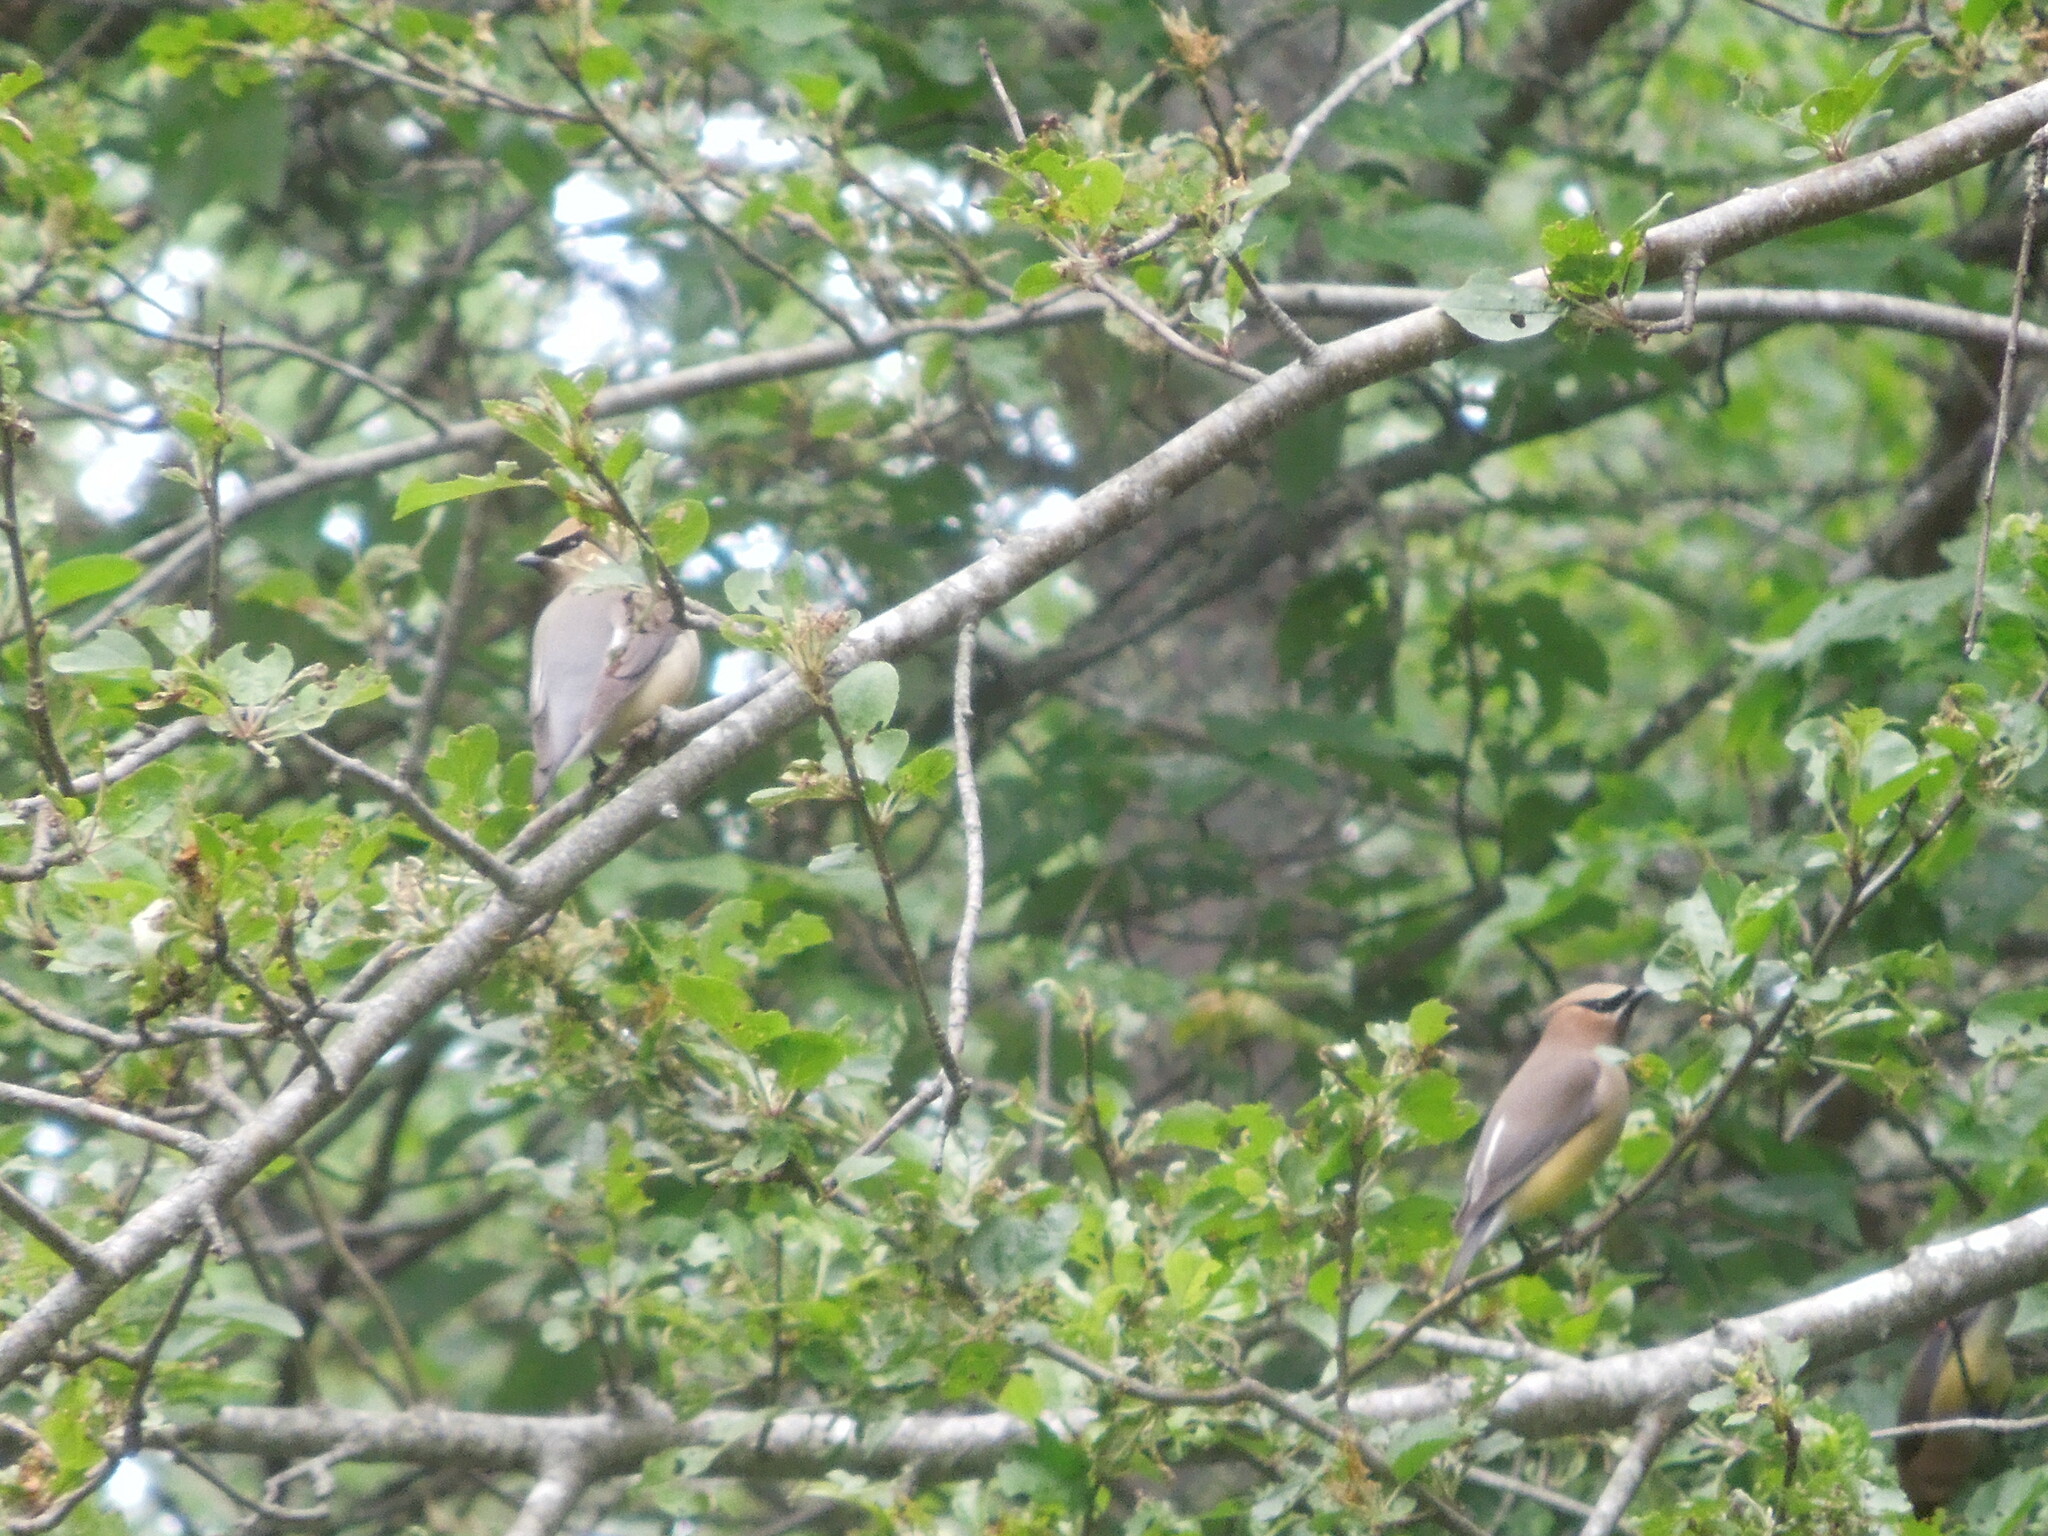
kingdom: Animalia
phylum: Chordata
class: Aves
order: Passeriformes
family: Bombycillidae
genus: Bombycilla
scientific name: Bombycilla cedrorum
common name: Cedar waxwing
